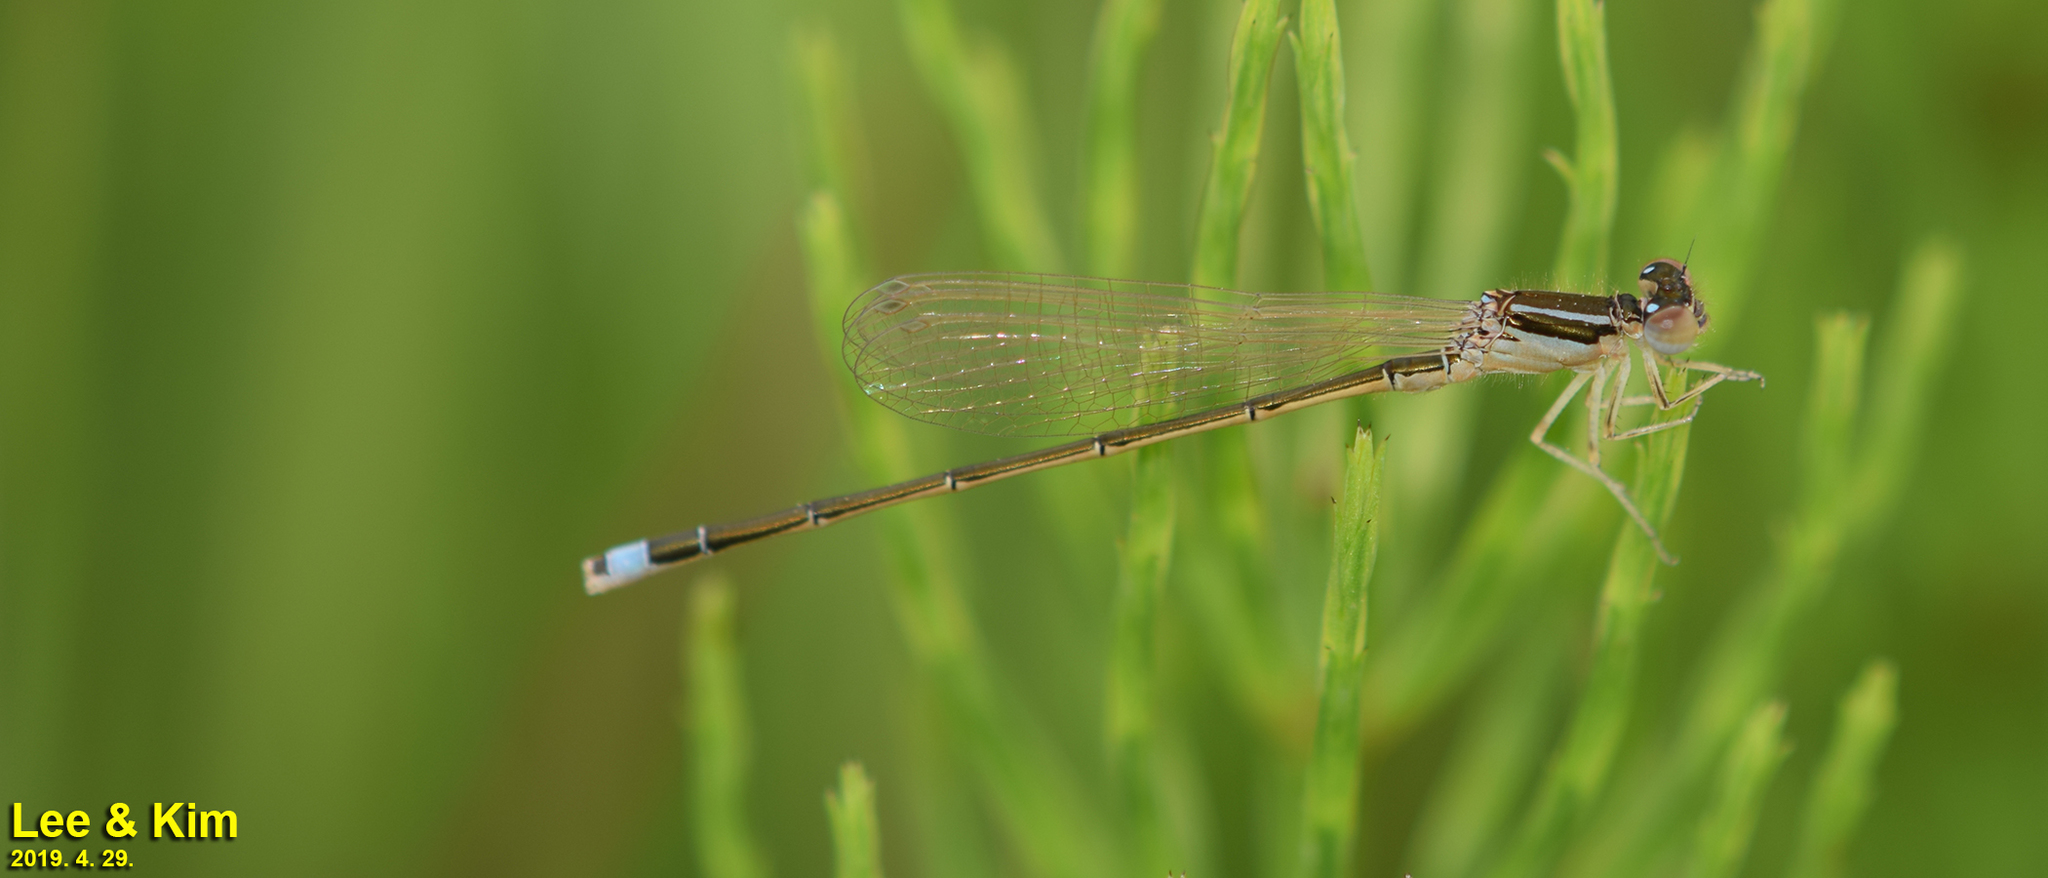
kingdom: Animalia
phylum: Arthropoda
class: Insecta
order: Odonata
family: Coenagrionidae
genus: Ischnura
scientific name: Ischnura asiatica
